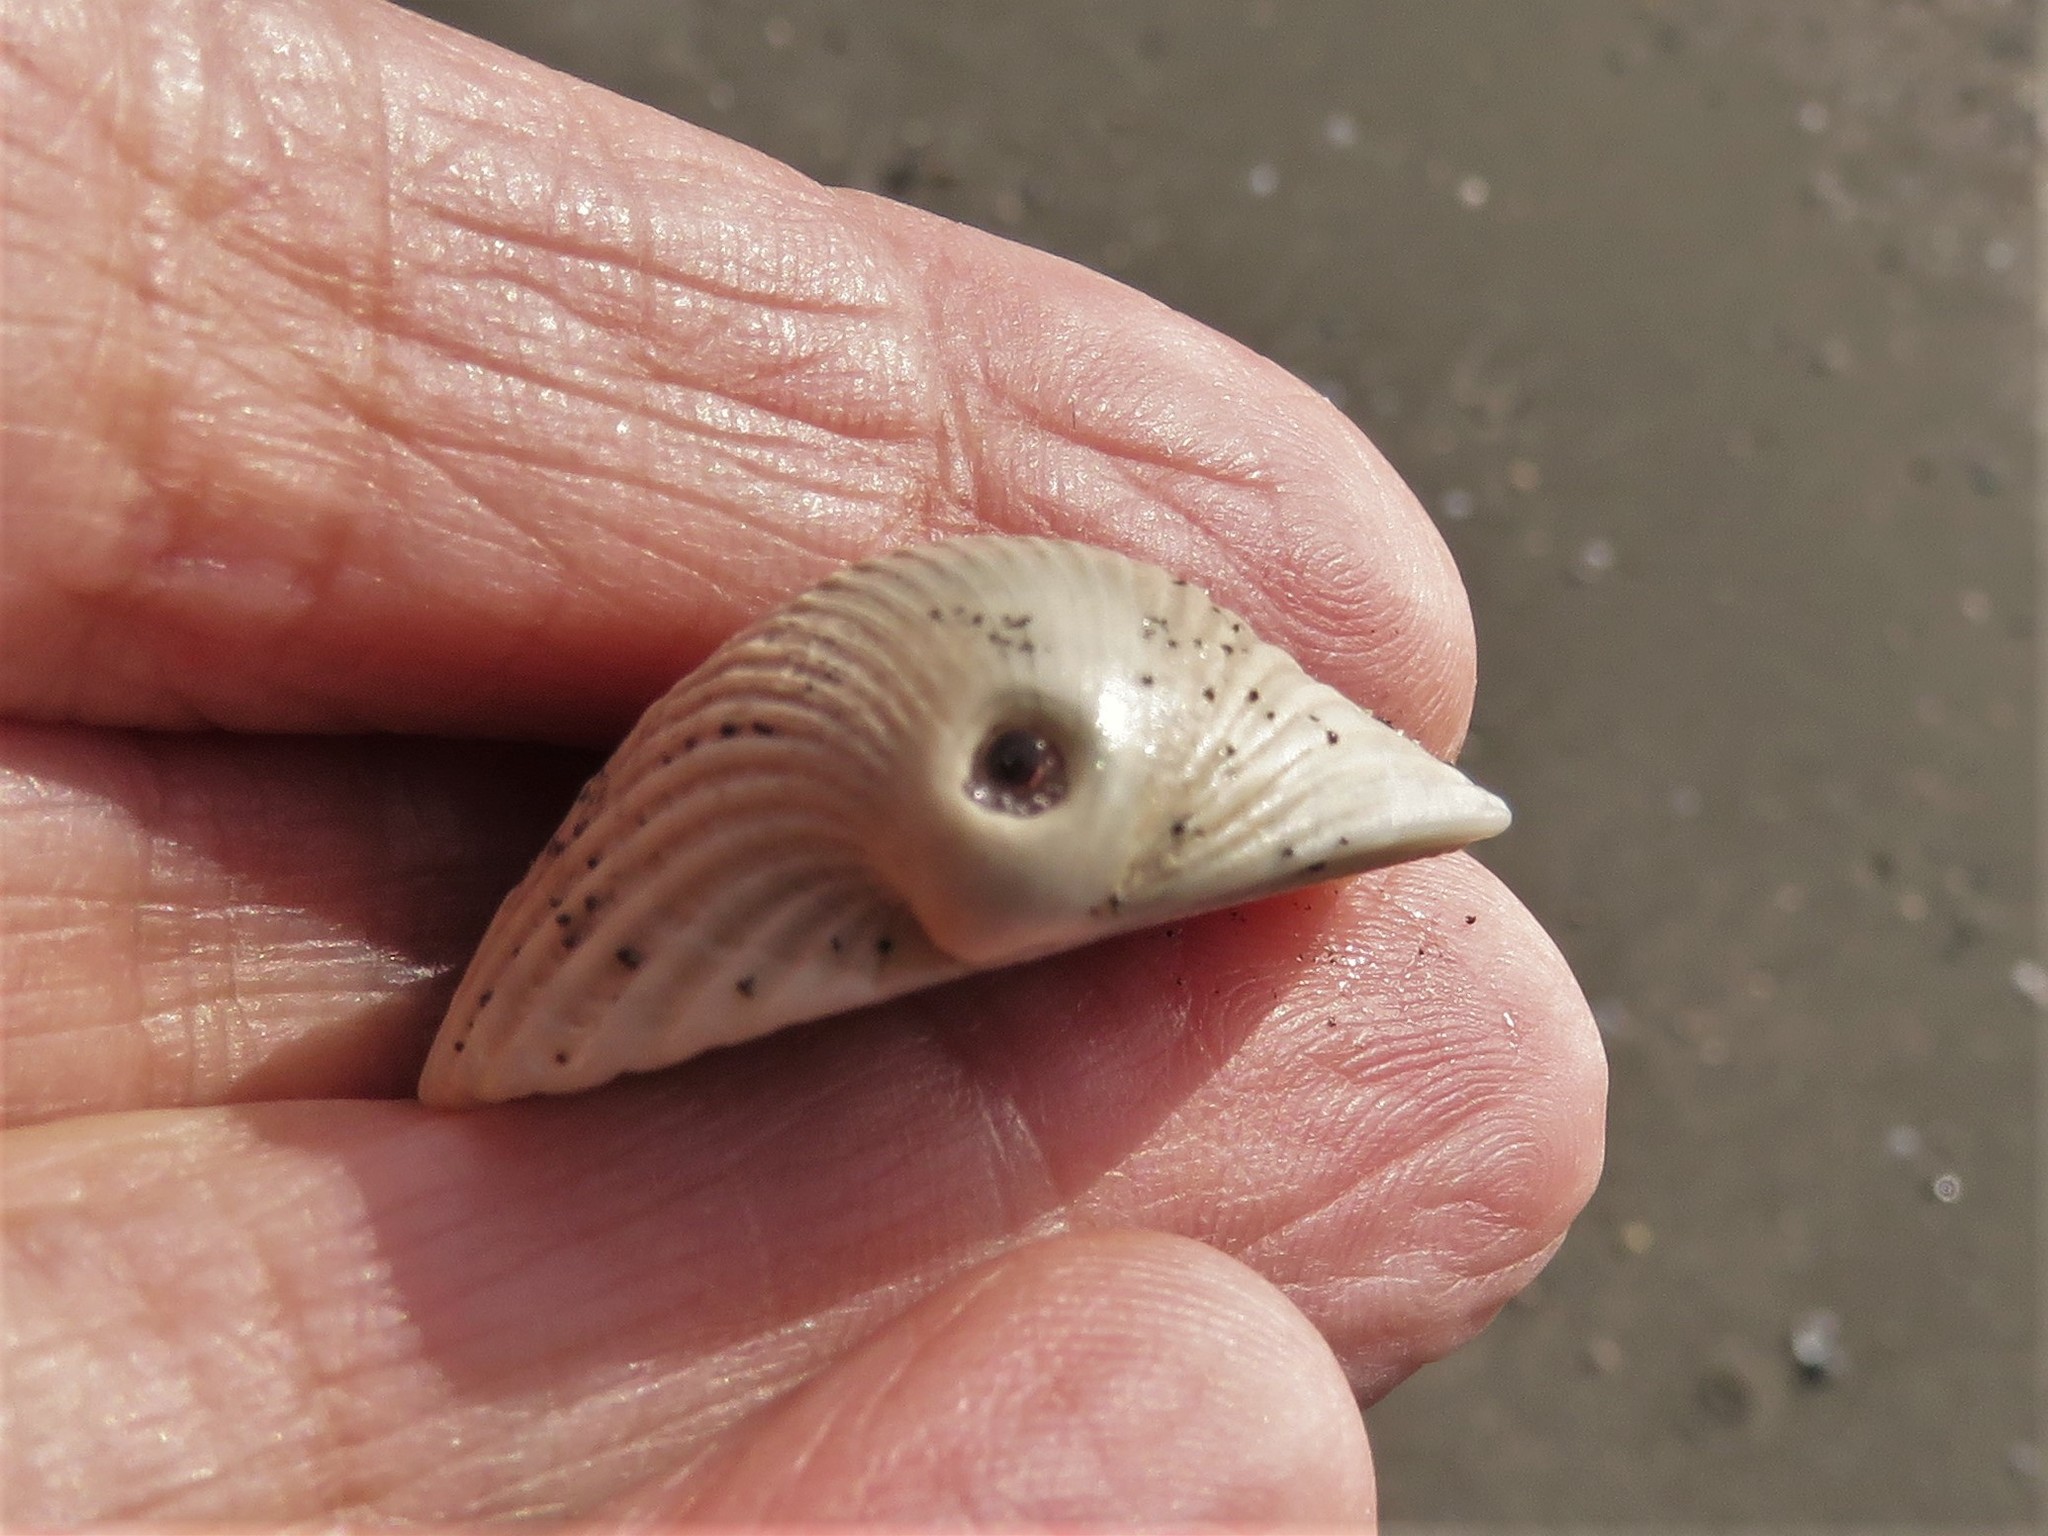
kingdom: Animalia
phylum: Mollusca
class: Bivalvia
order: Arcida
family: Arcidae
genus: Lunarca
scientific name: Lunarca ovalis
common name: Blood ark
